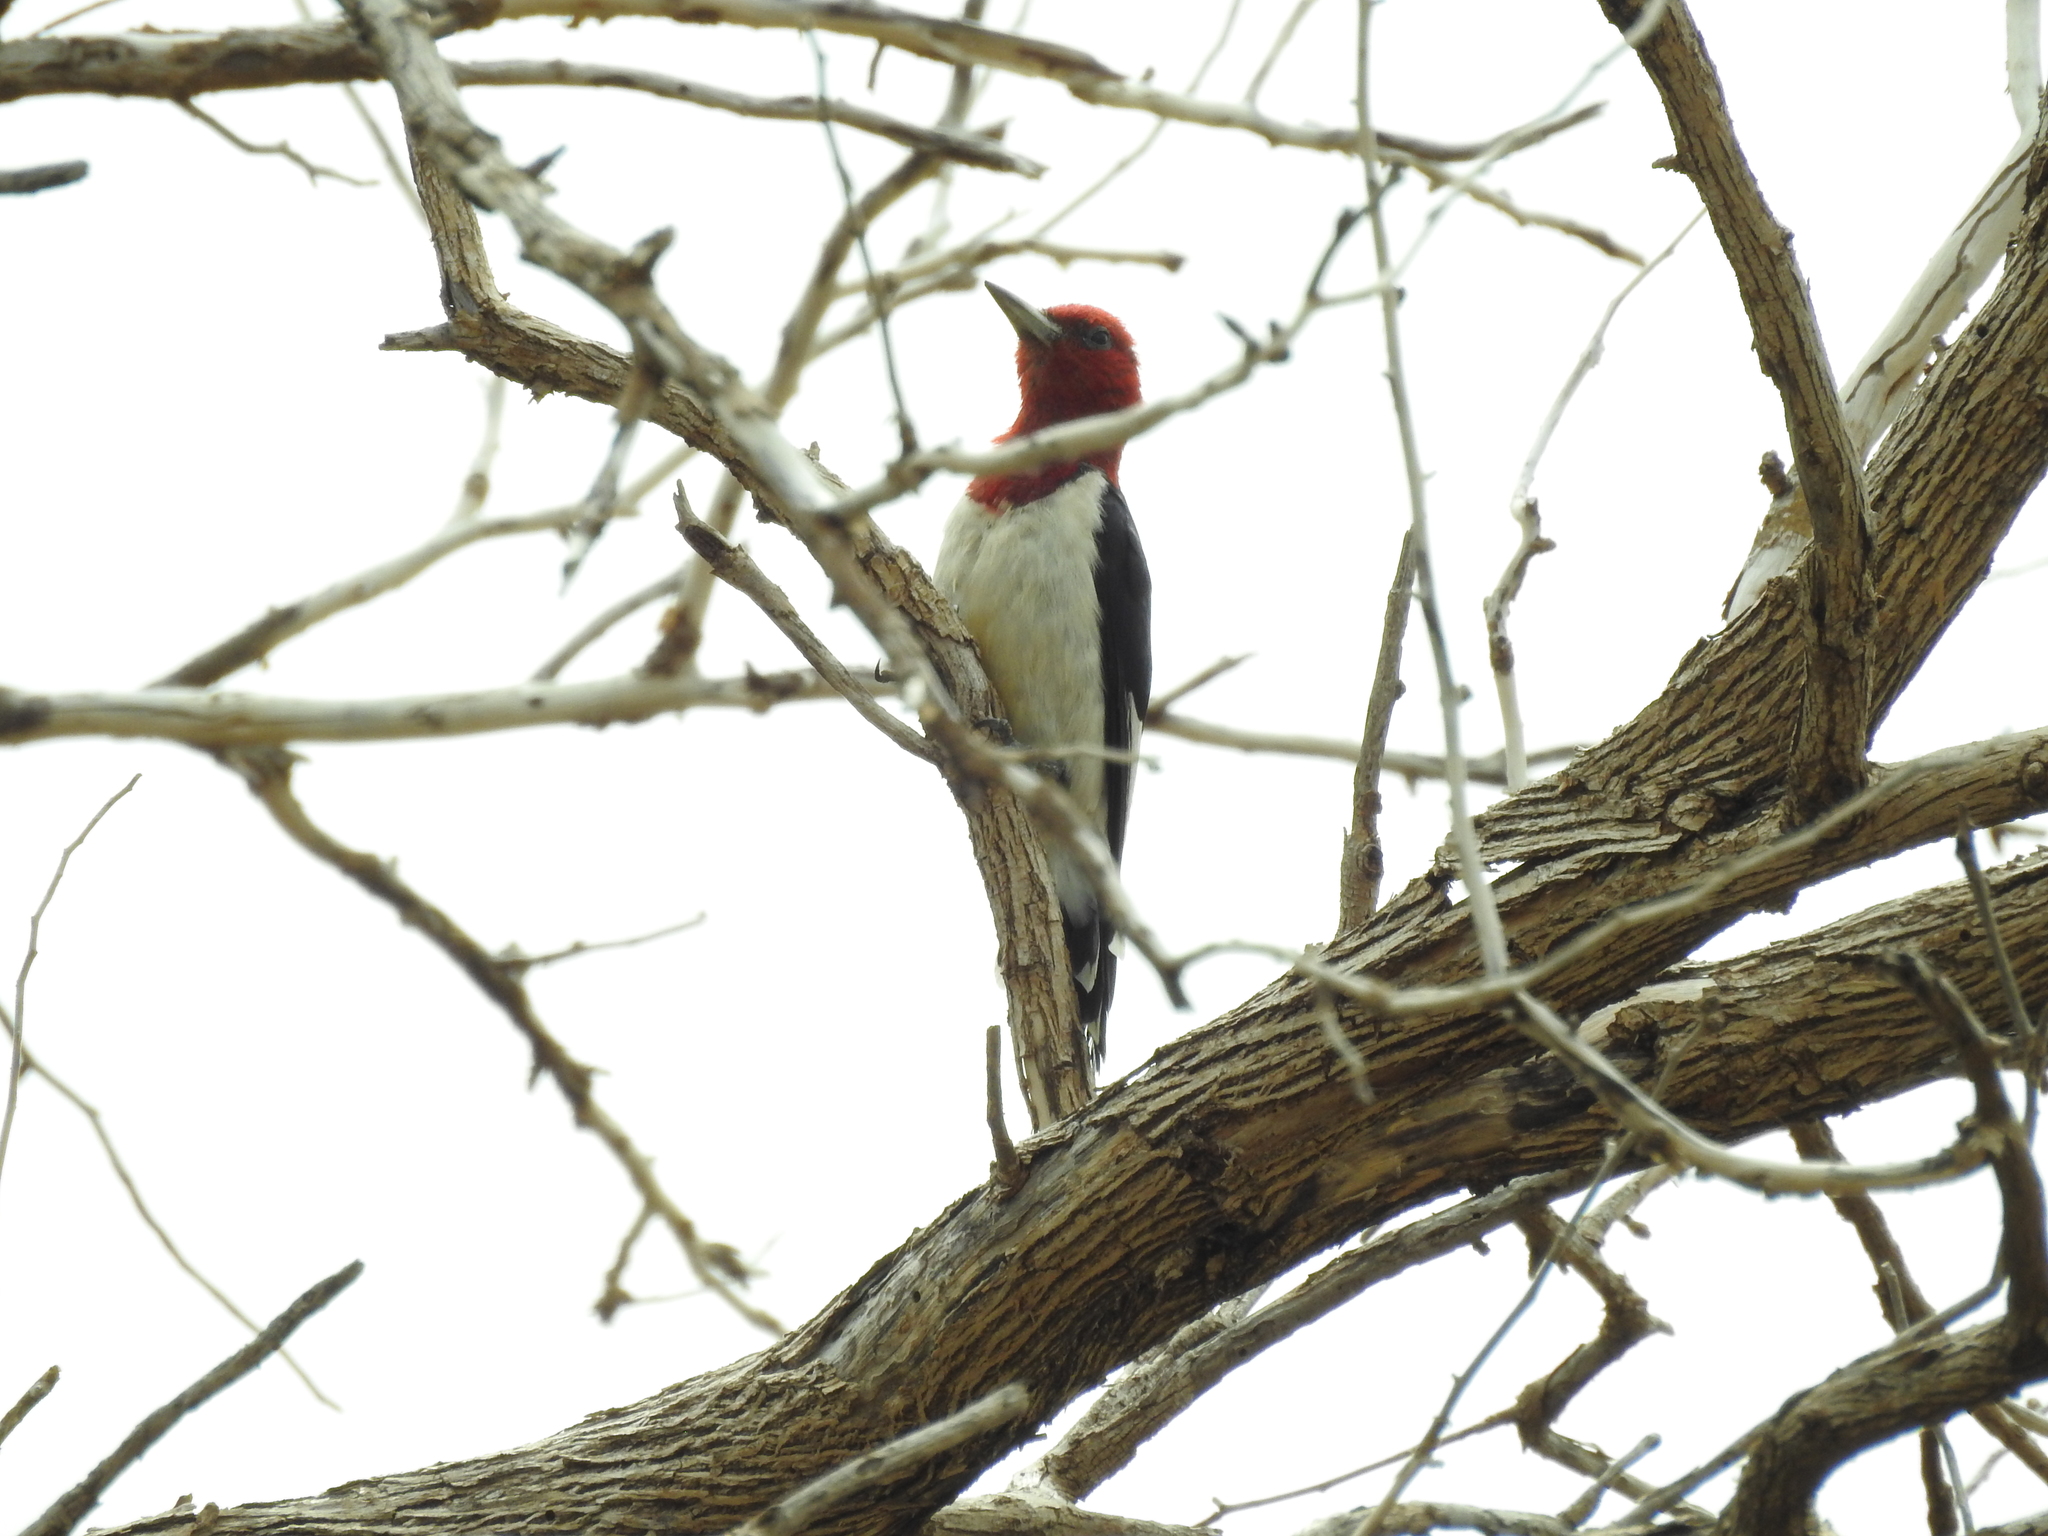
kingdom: Animalia
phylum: Chordata
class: Aves
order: Piciformes
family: Picidae
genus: Melanerpes
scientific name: Melanerpes erythrocephalus
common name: Red-headed woodpecker
